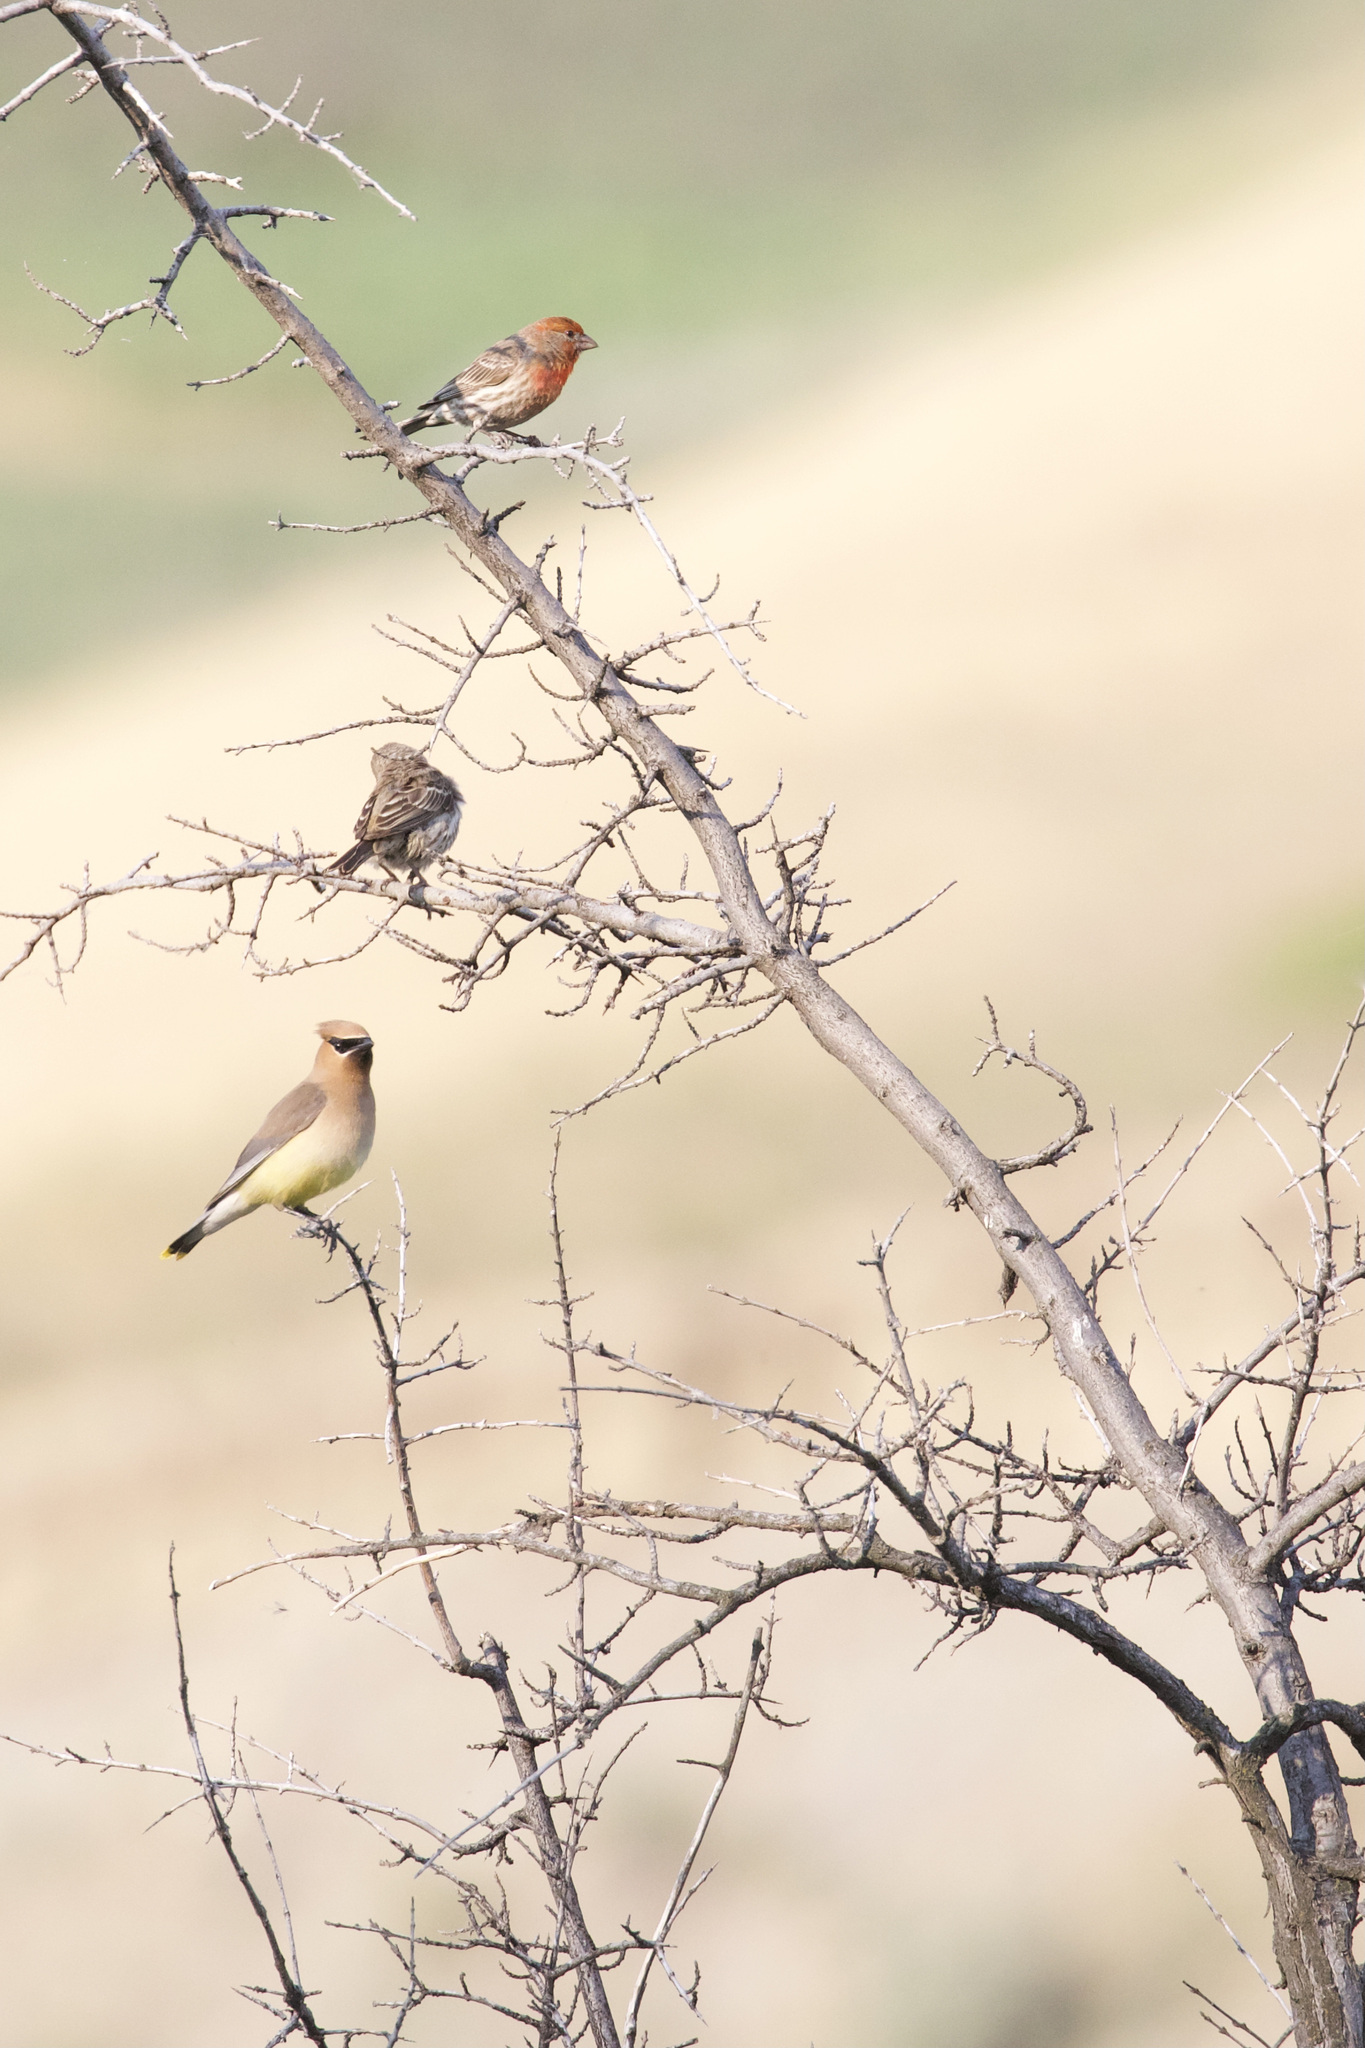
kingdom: Animalia
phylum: Chordata
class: Aves
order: Passeriformes
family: Fringillidae
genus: Haemorhous
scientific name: Haemorhous mexicanus
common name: House finch
